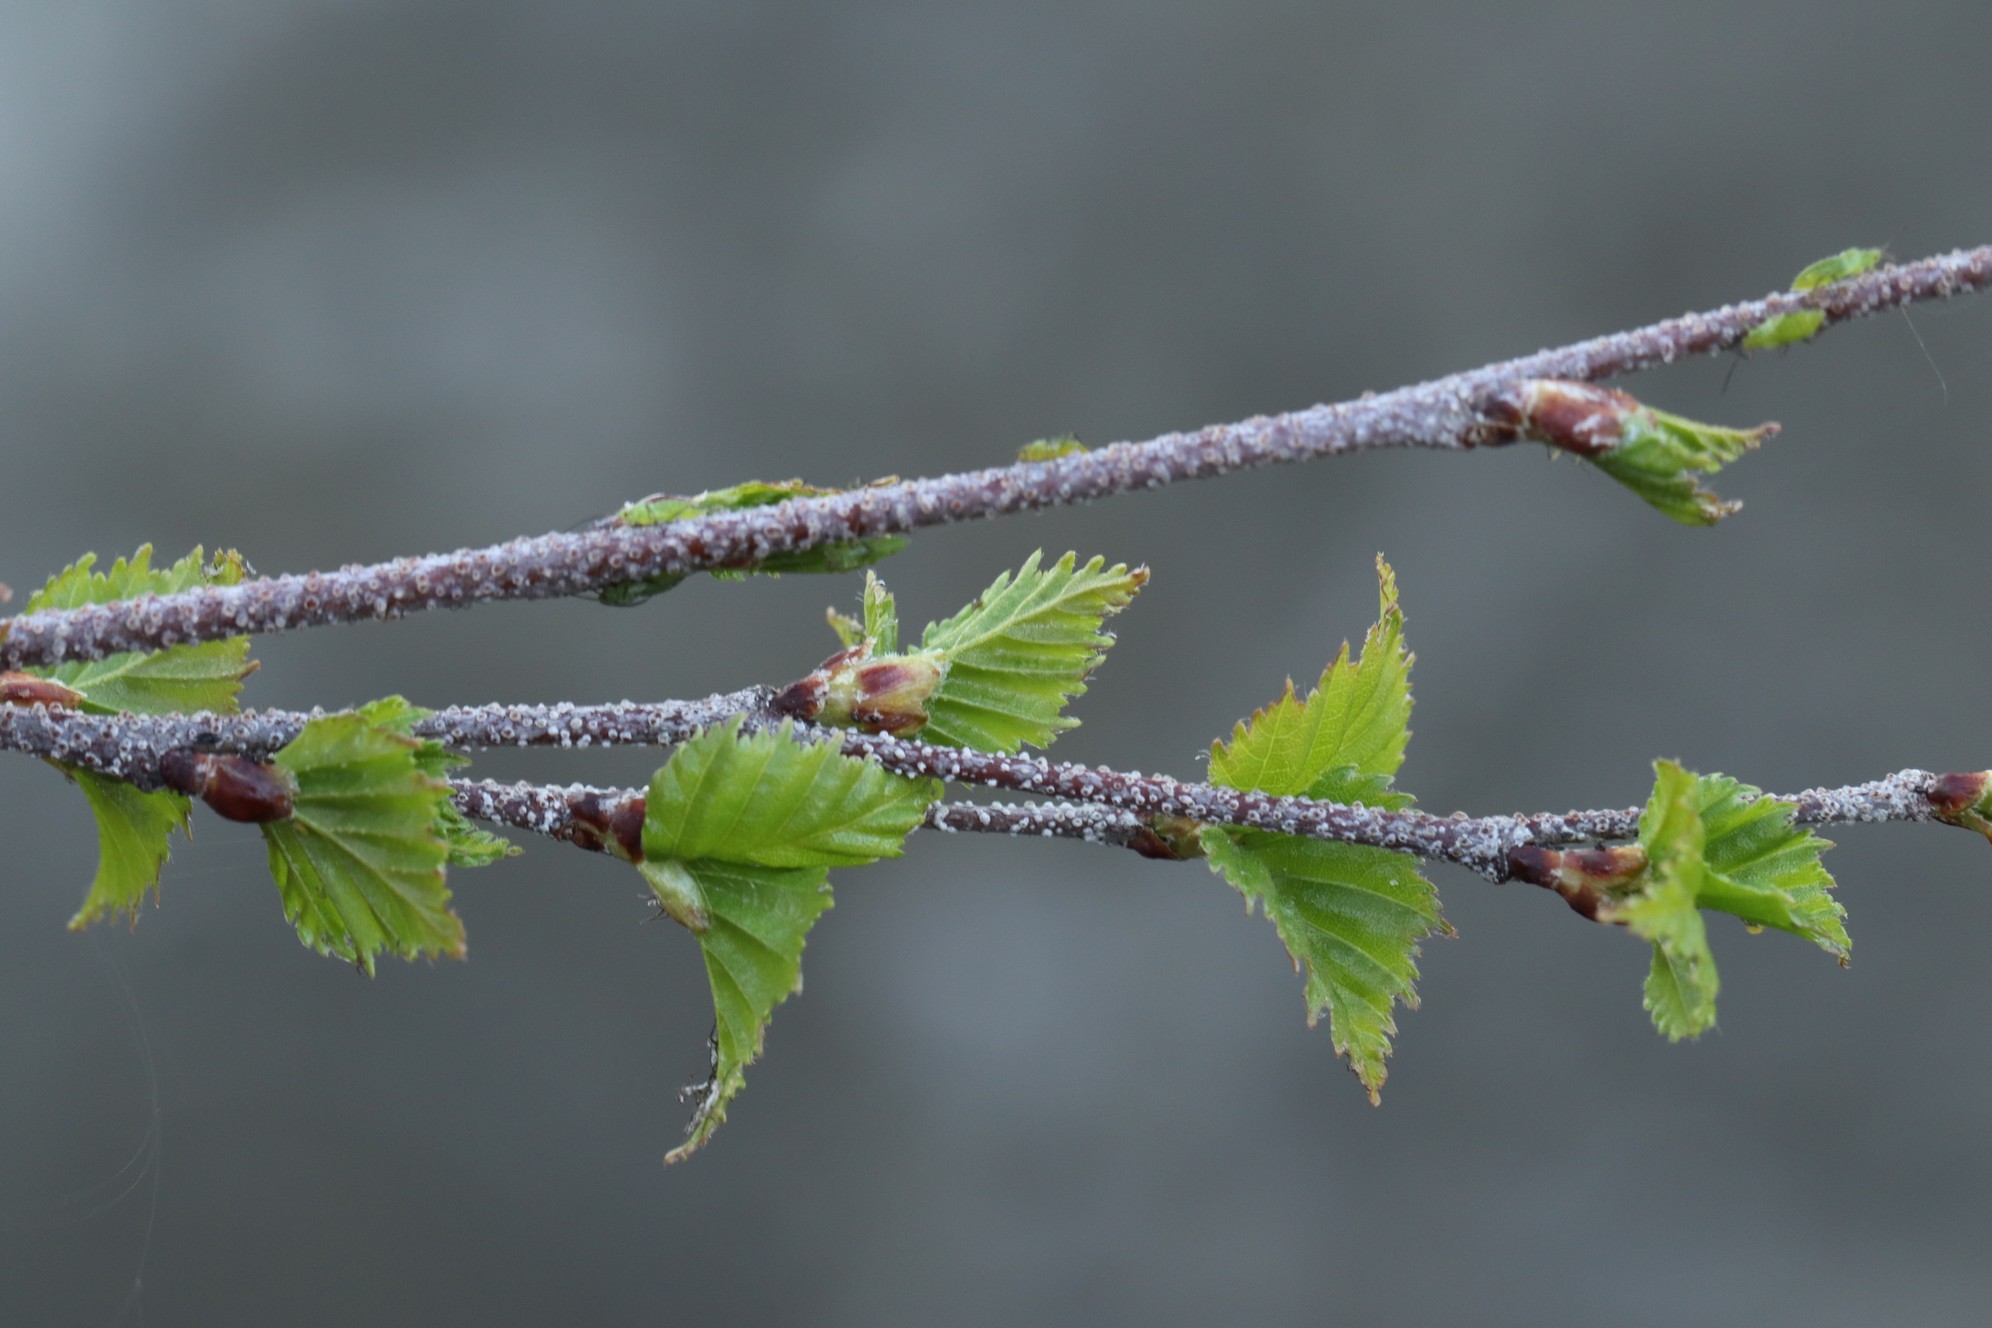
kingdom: Plantae
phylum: Tracheophyta
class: Magnoliopsida
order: Fagales
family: Betulaceae
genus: Betula
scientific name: Betula pendula
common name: Silver birch
